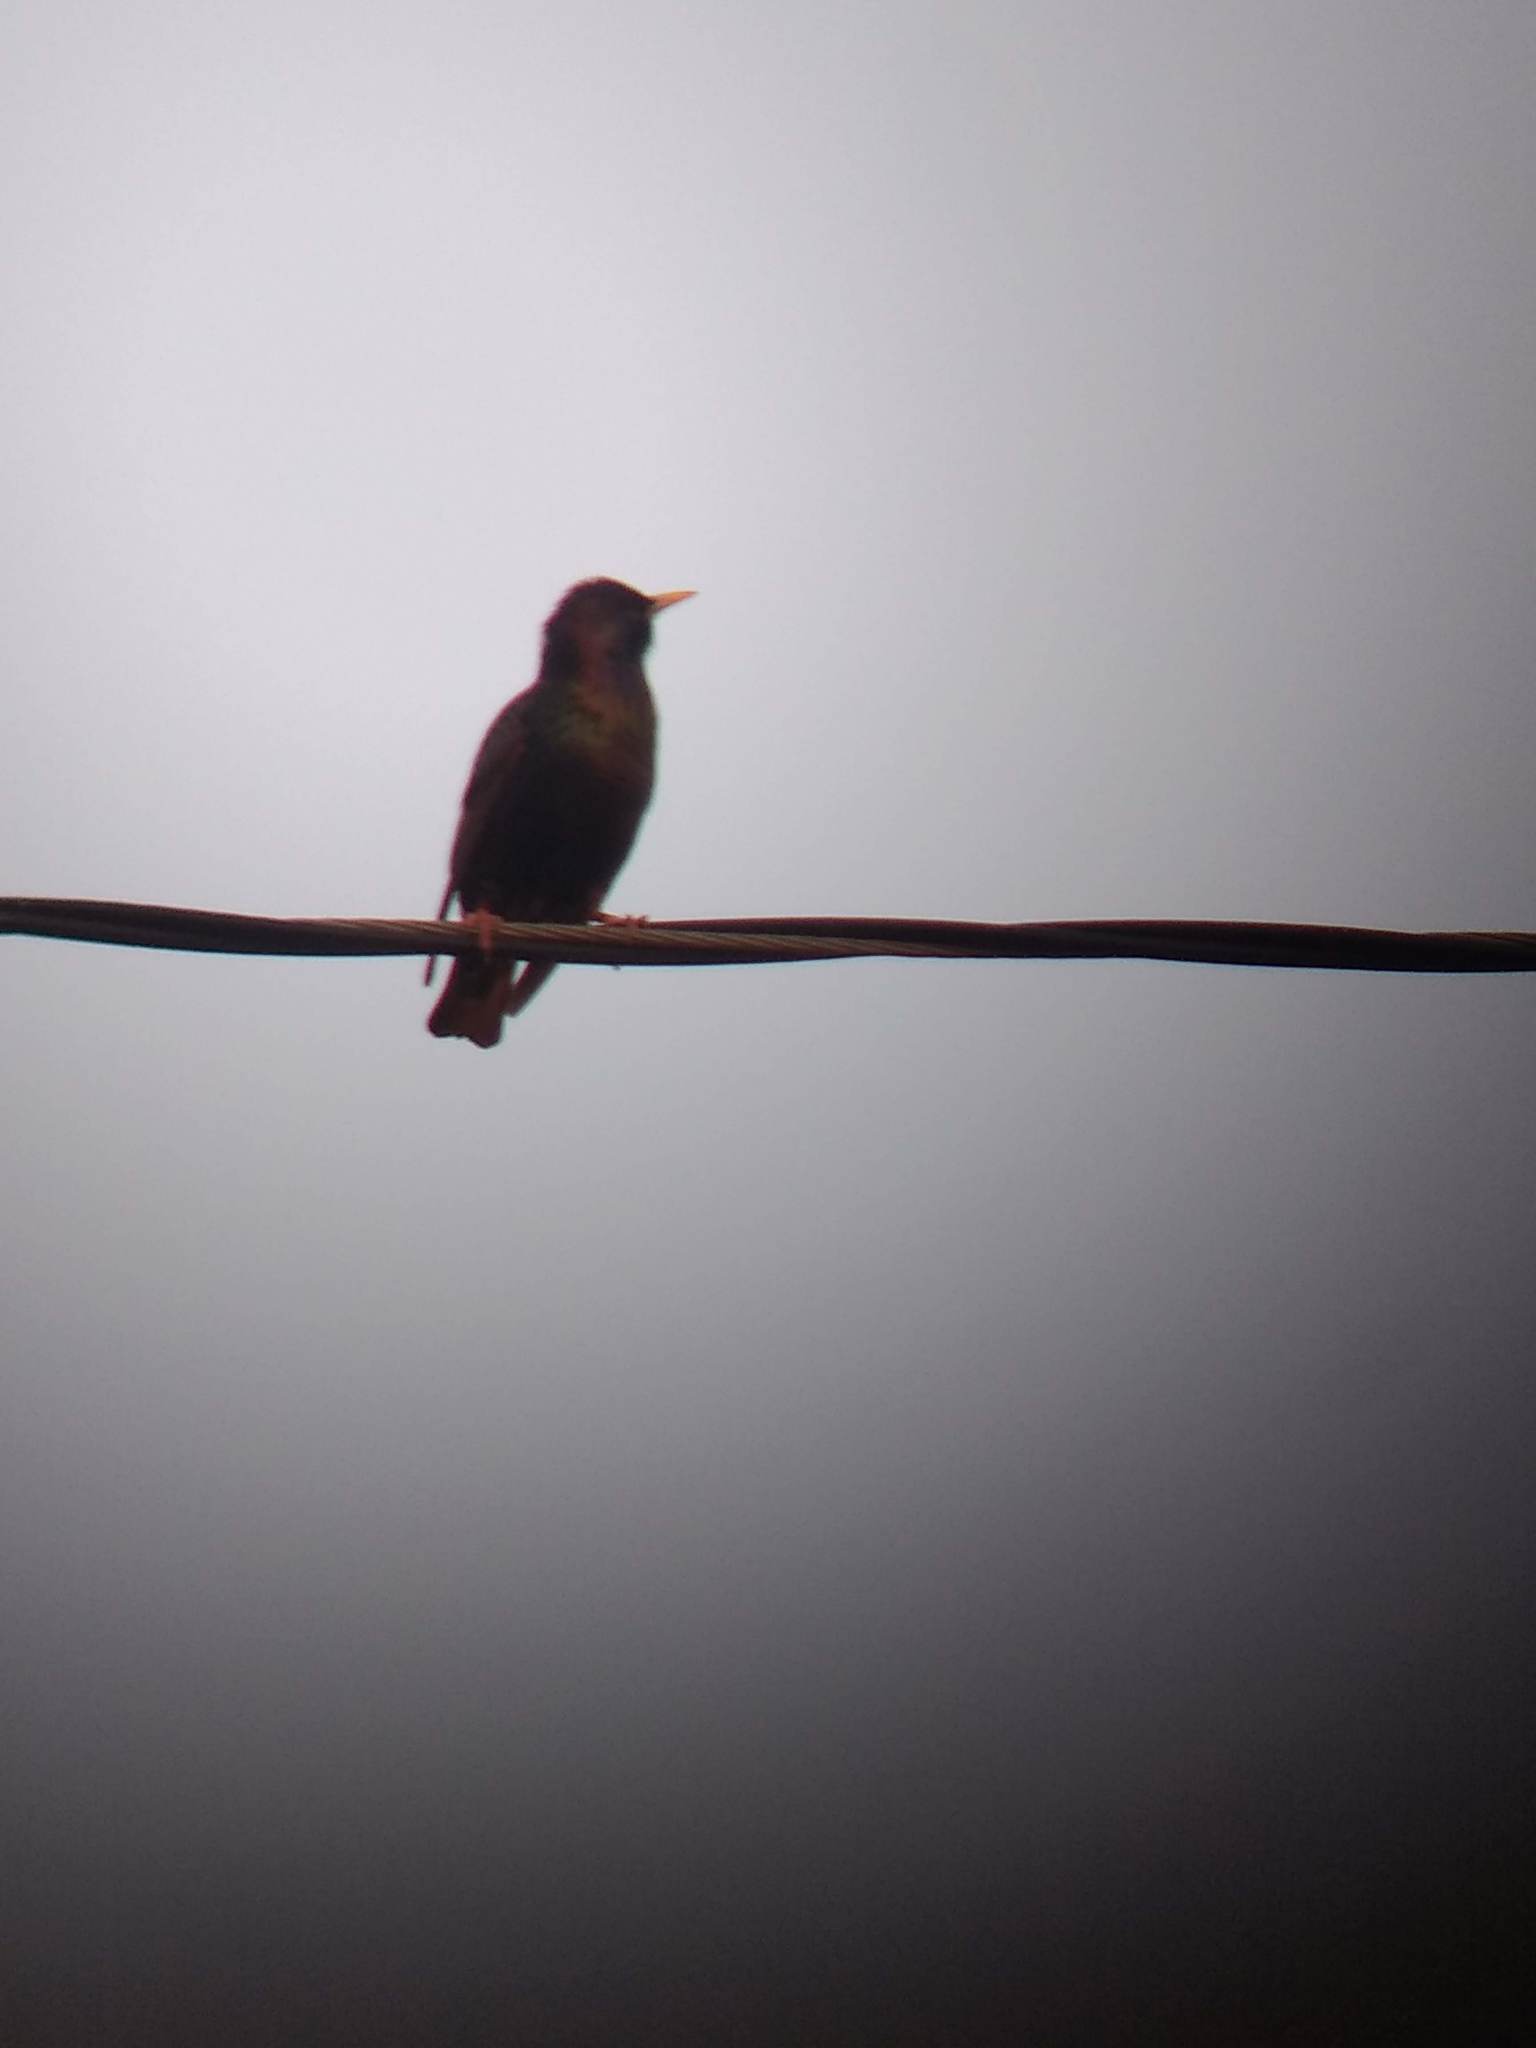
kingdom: Animalia
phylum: Chordata
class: Aves
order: Passeriformes
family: Sturnidae
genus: Sturnus
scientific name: Sturnus vulgaris
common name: Common starling
